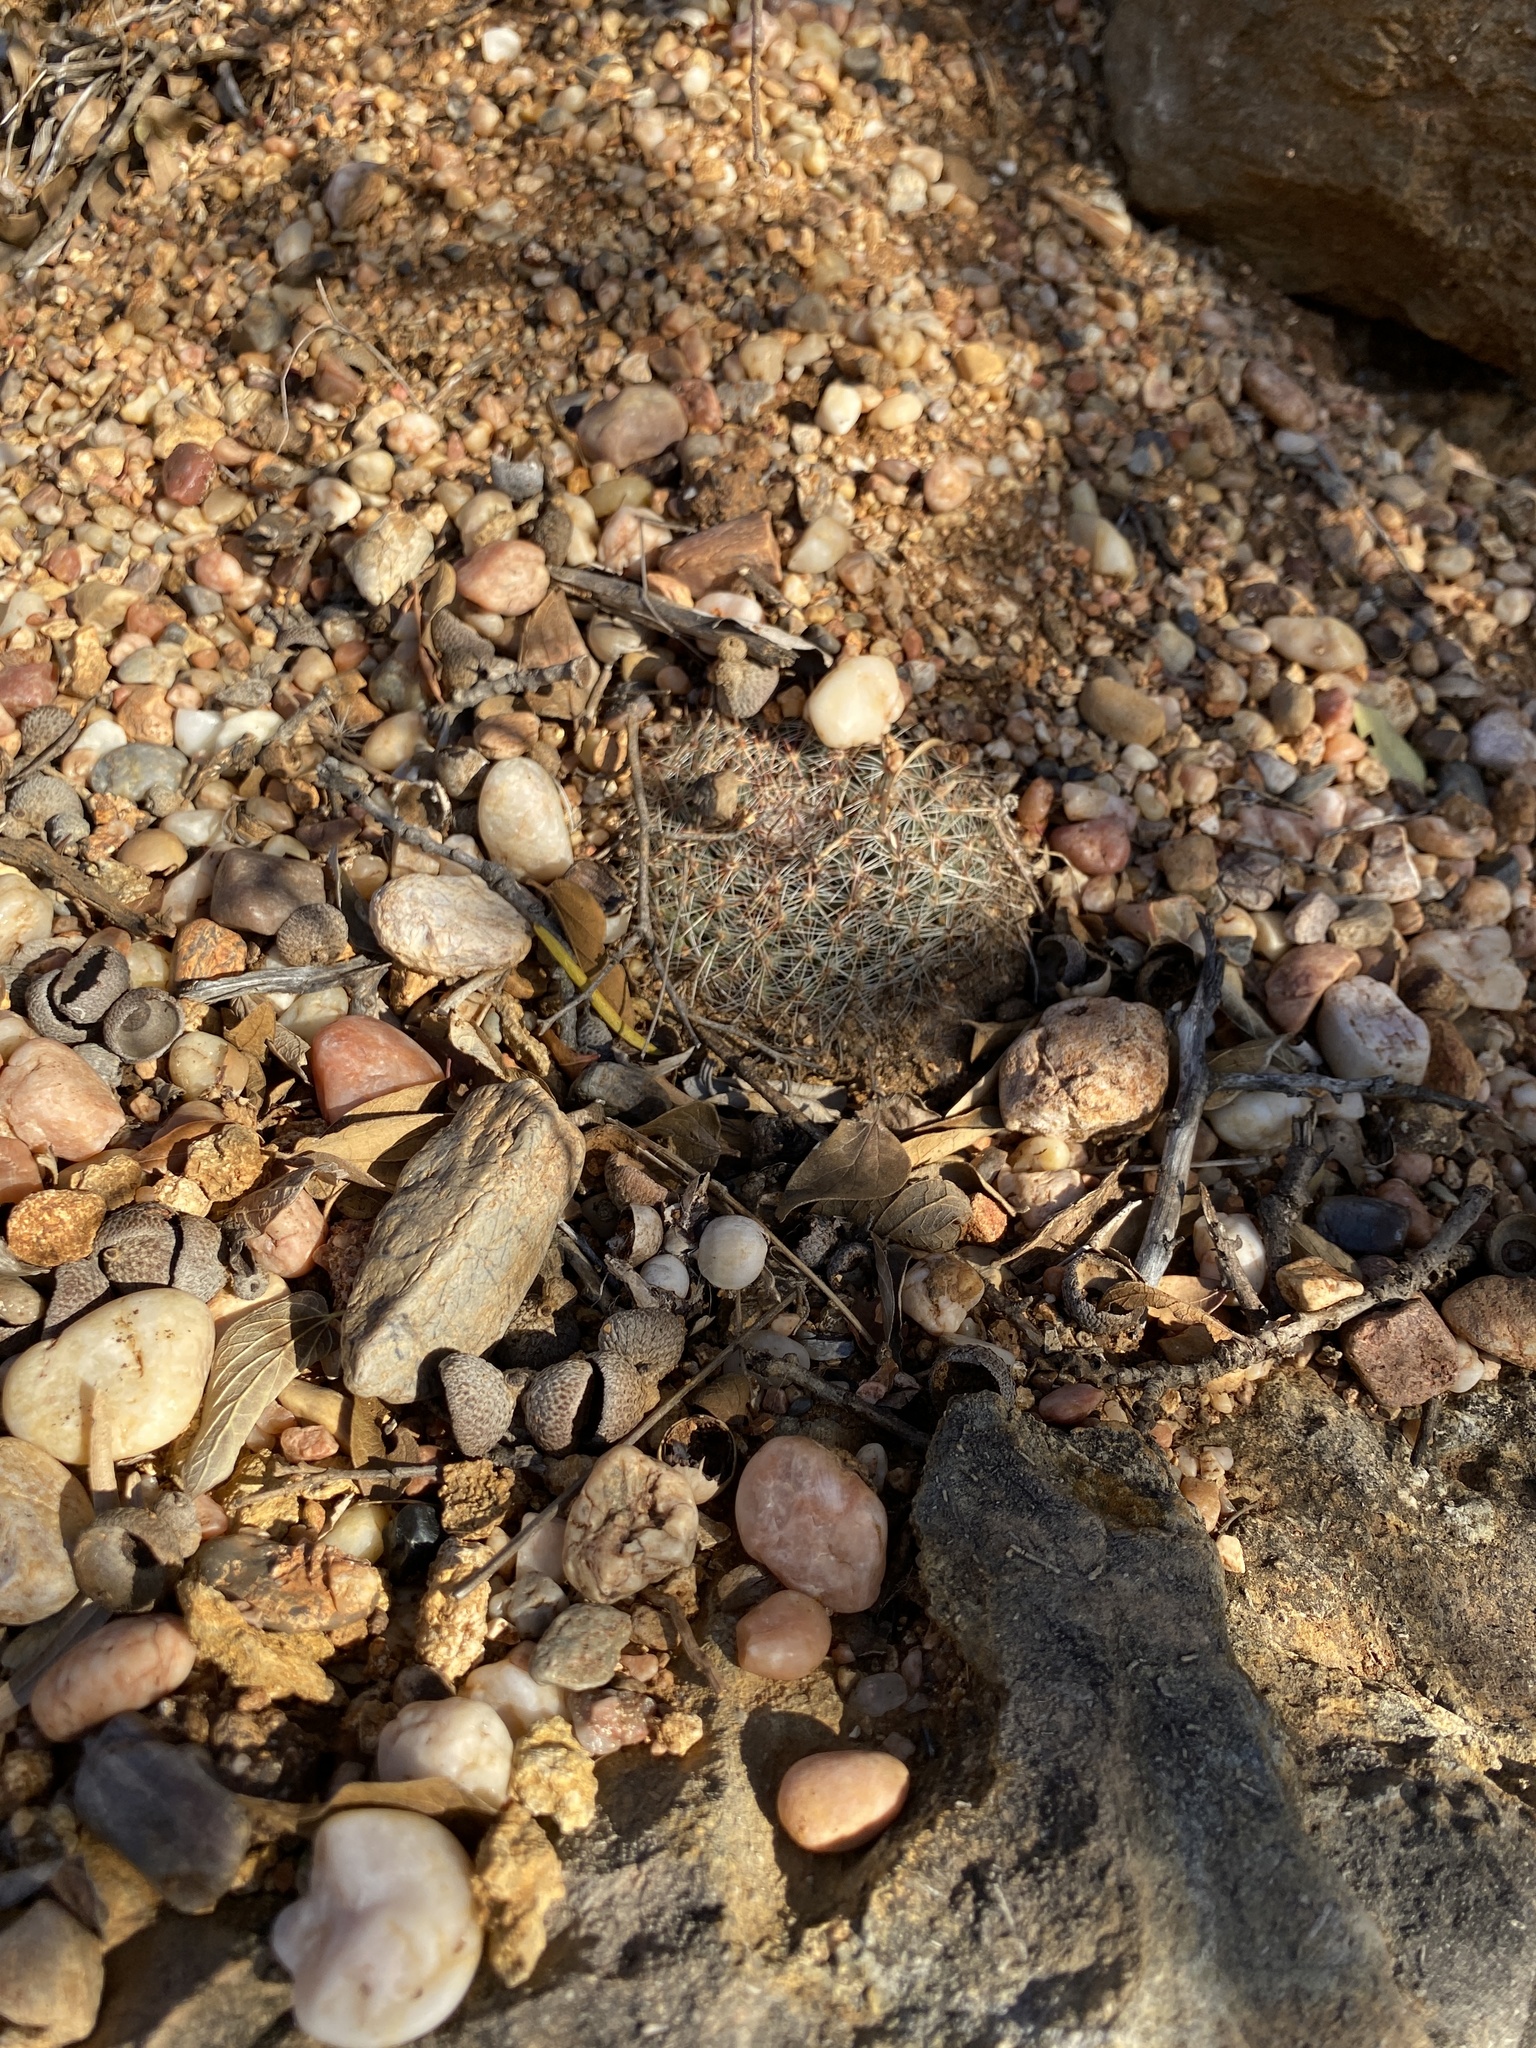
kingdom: Plantae
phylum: Tracheophyta
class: Magnoliopsida
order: Caryophyllales
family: Cactaceae
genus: Mammillaria
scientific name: Mammillaria heyderi
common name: Little nipple cactus
